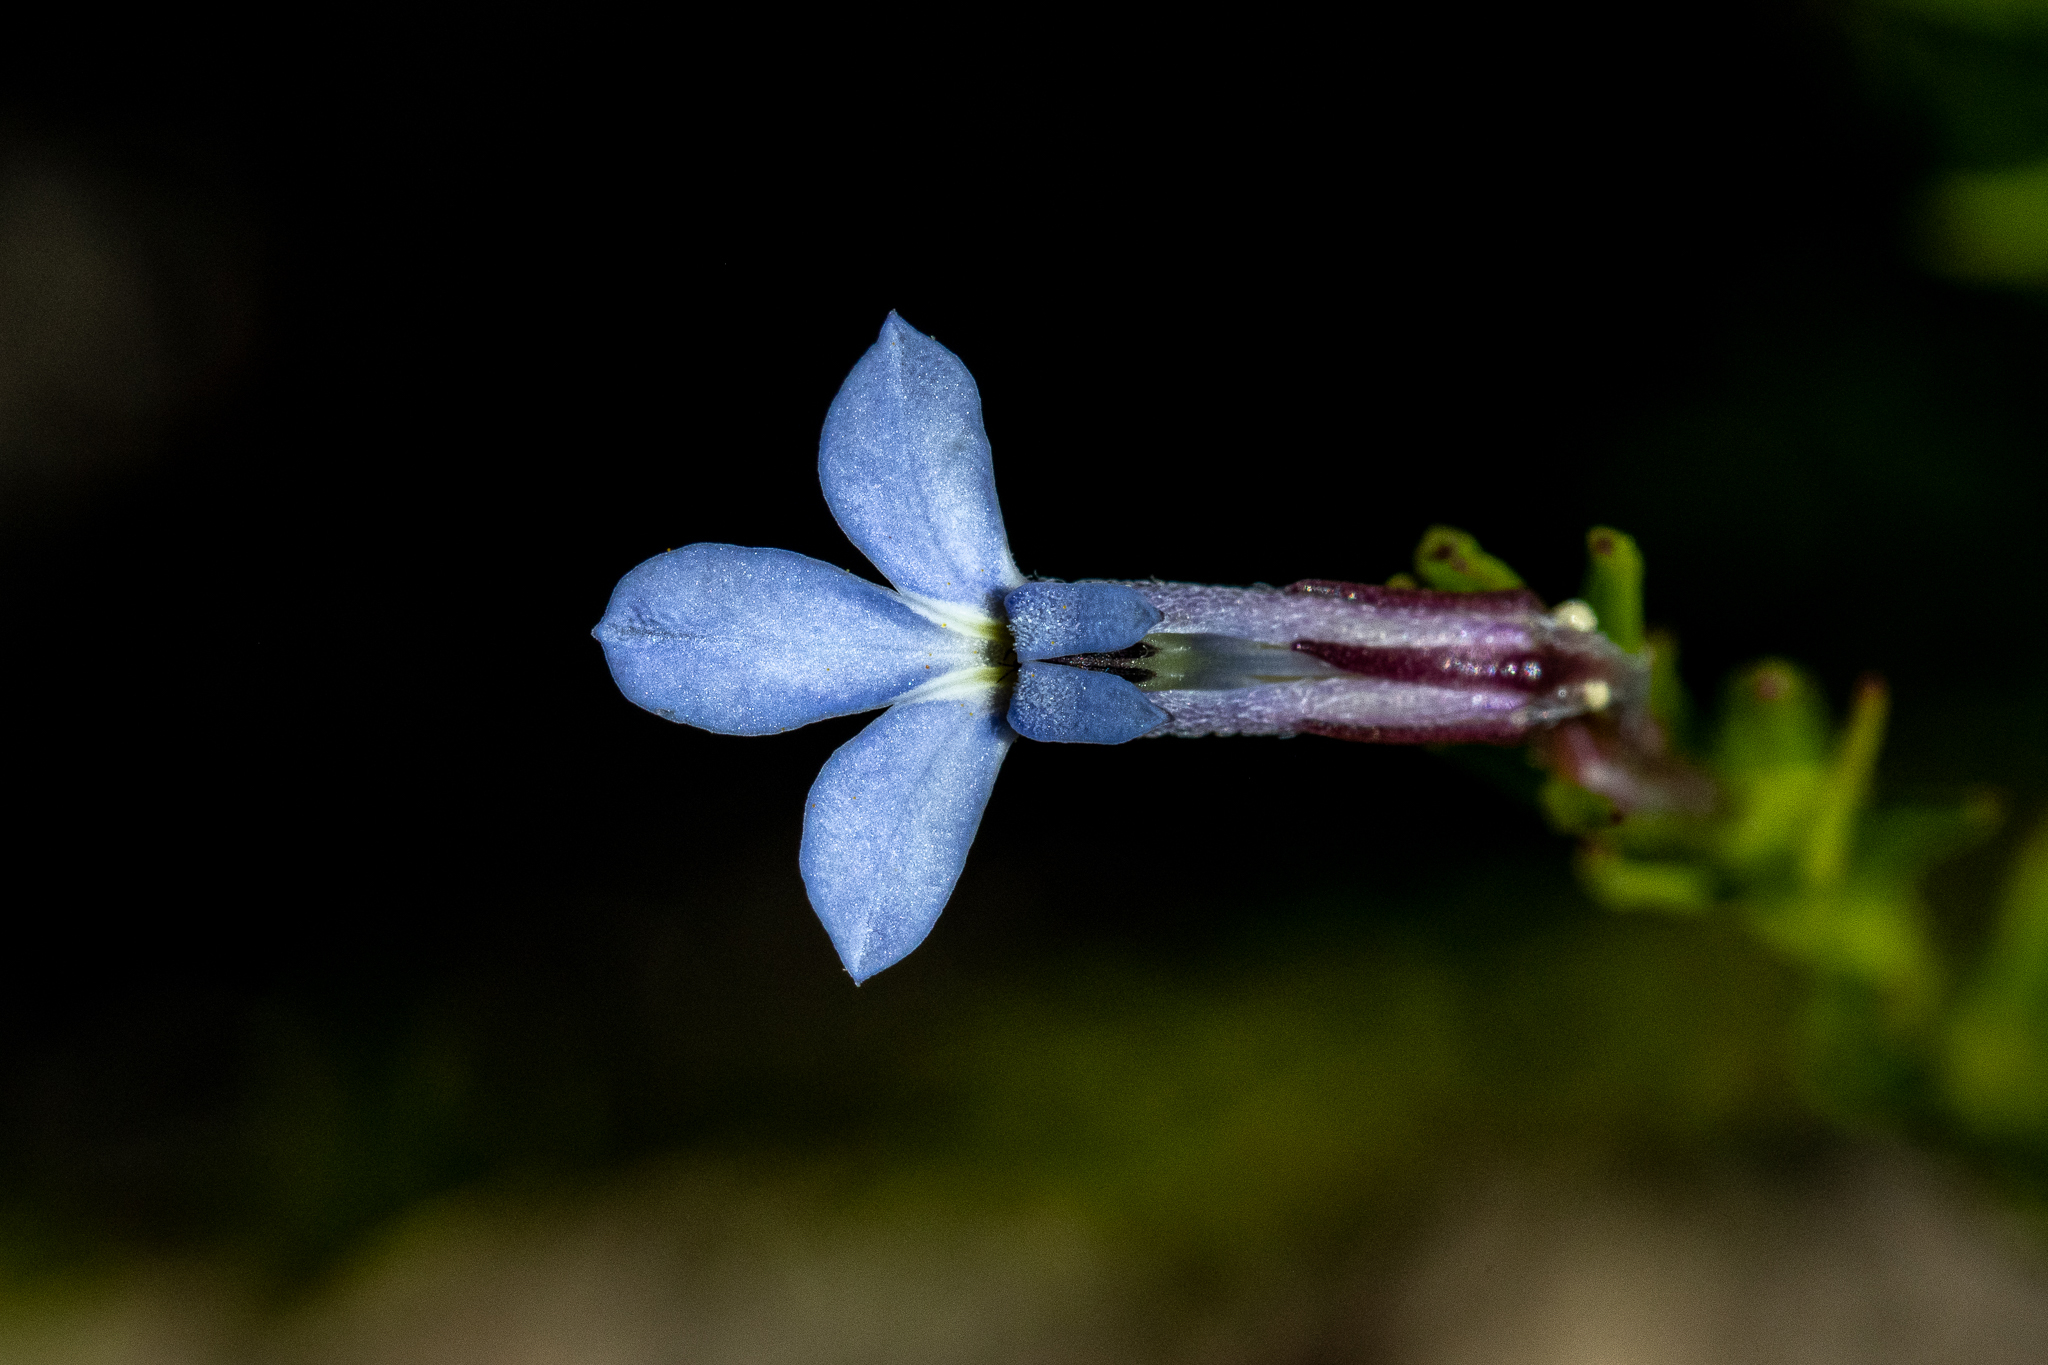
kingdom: Plantae
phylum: Tracheophyta
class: Magnoliopsida
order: Asterales
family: Campanulaceae
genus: Lobelia
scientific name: Lobelia pinifolia
